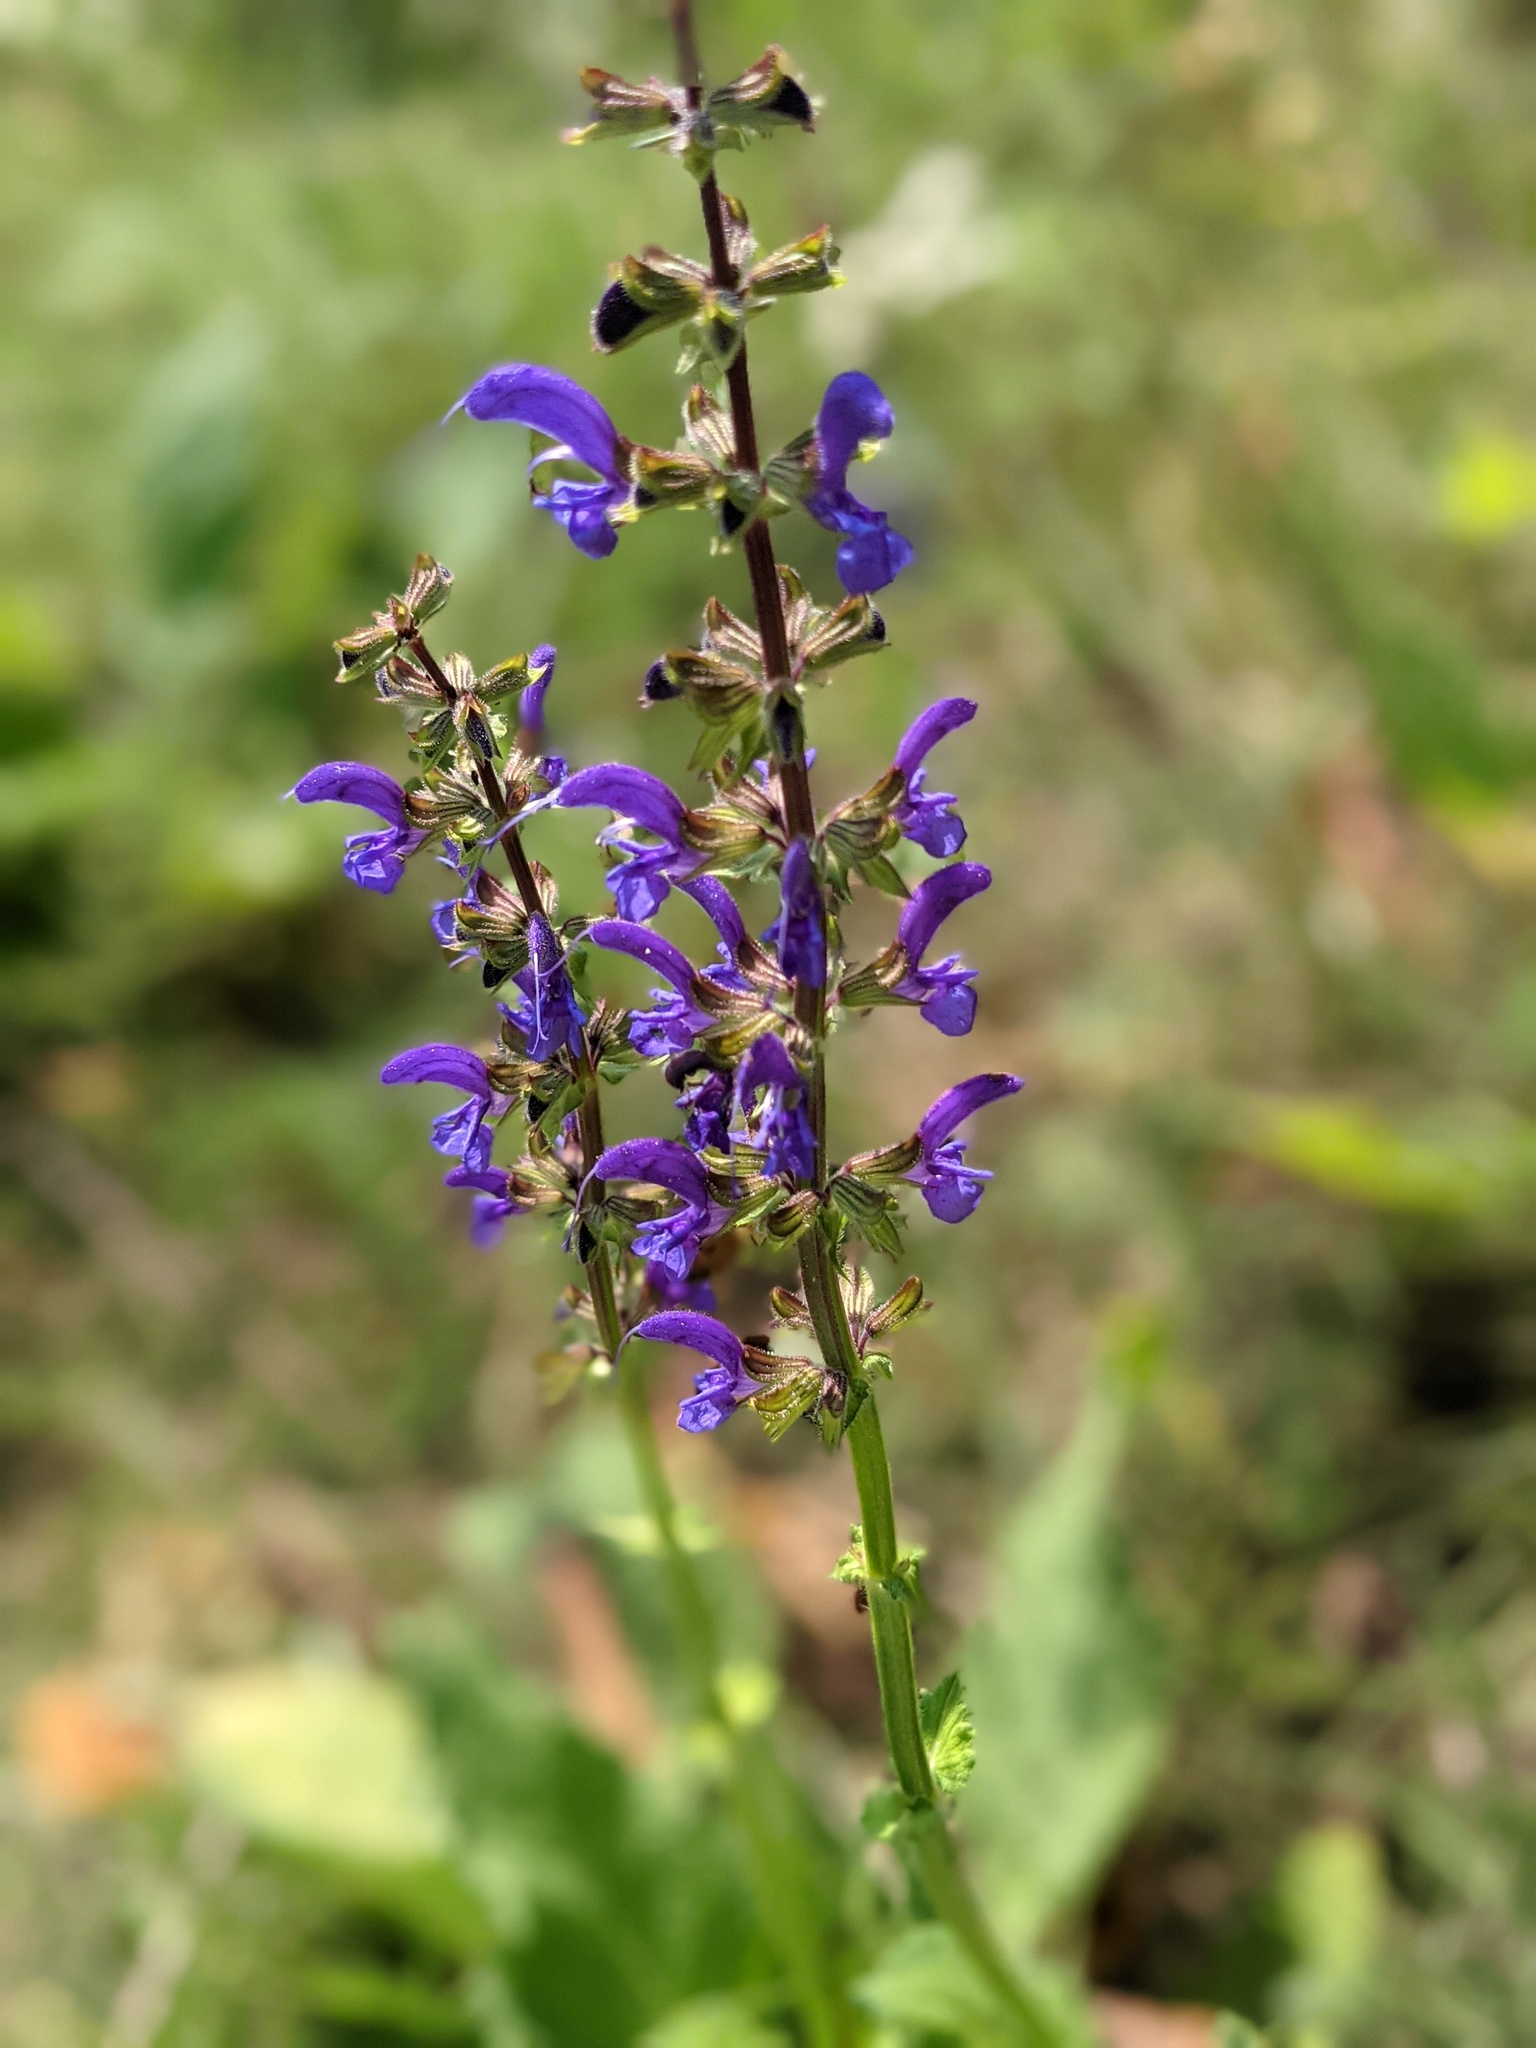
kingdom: Plantae
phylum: Tracheophyta
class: Magnoliopsida
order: Lamiales
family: Lamiaceae
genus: Salvia
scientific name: Salvia pratensis
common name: Meadow sage
